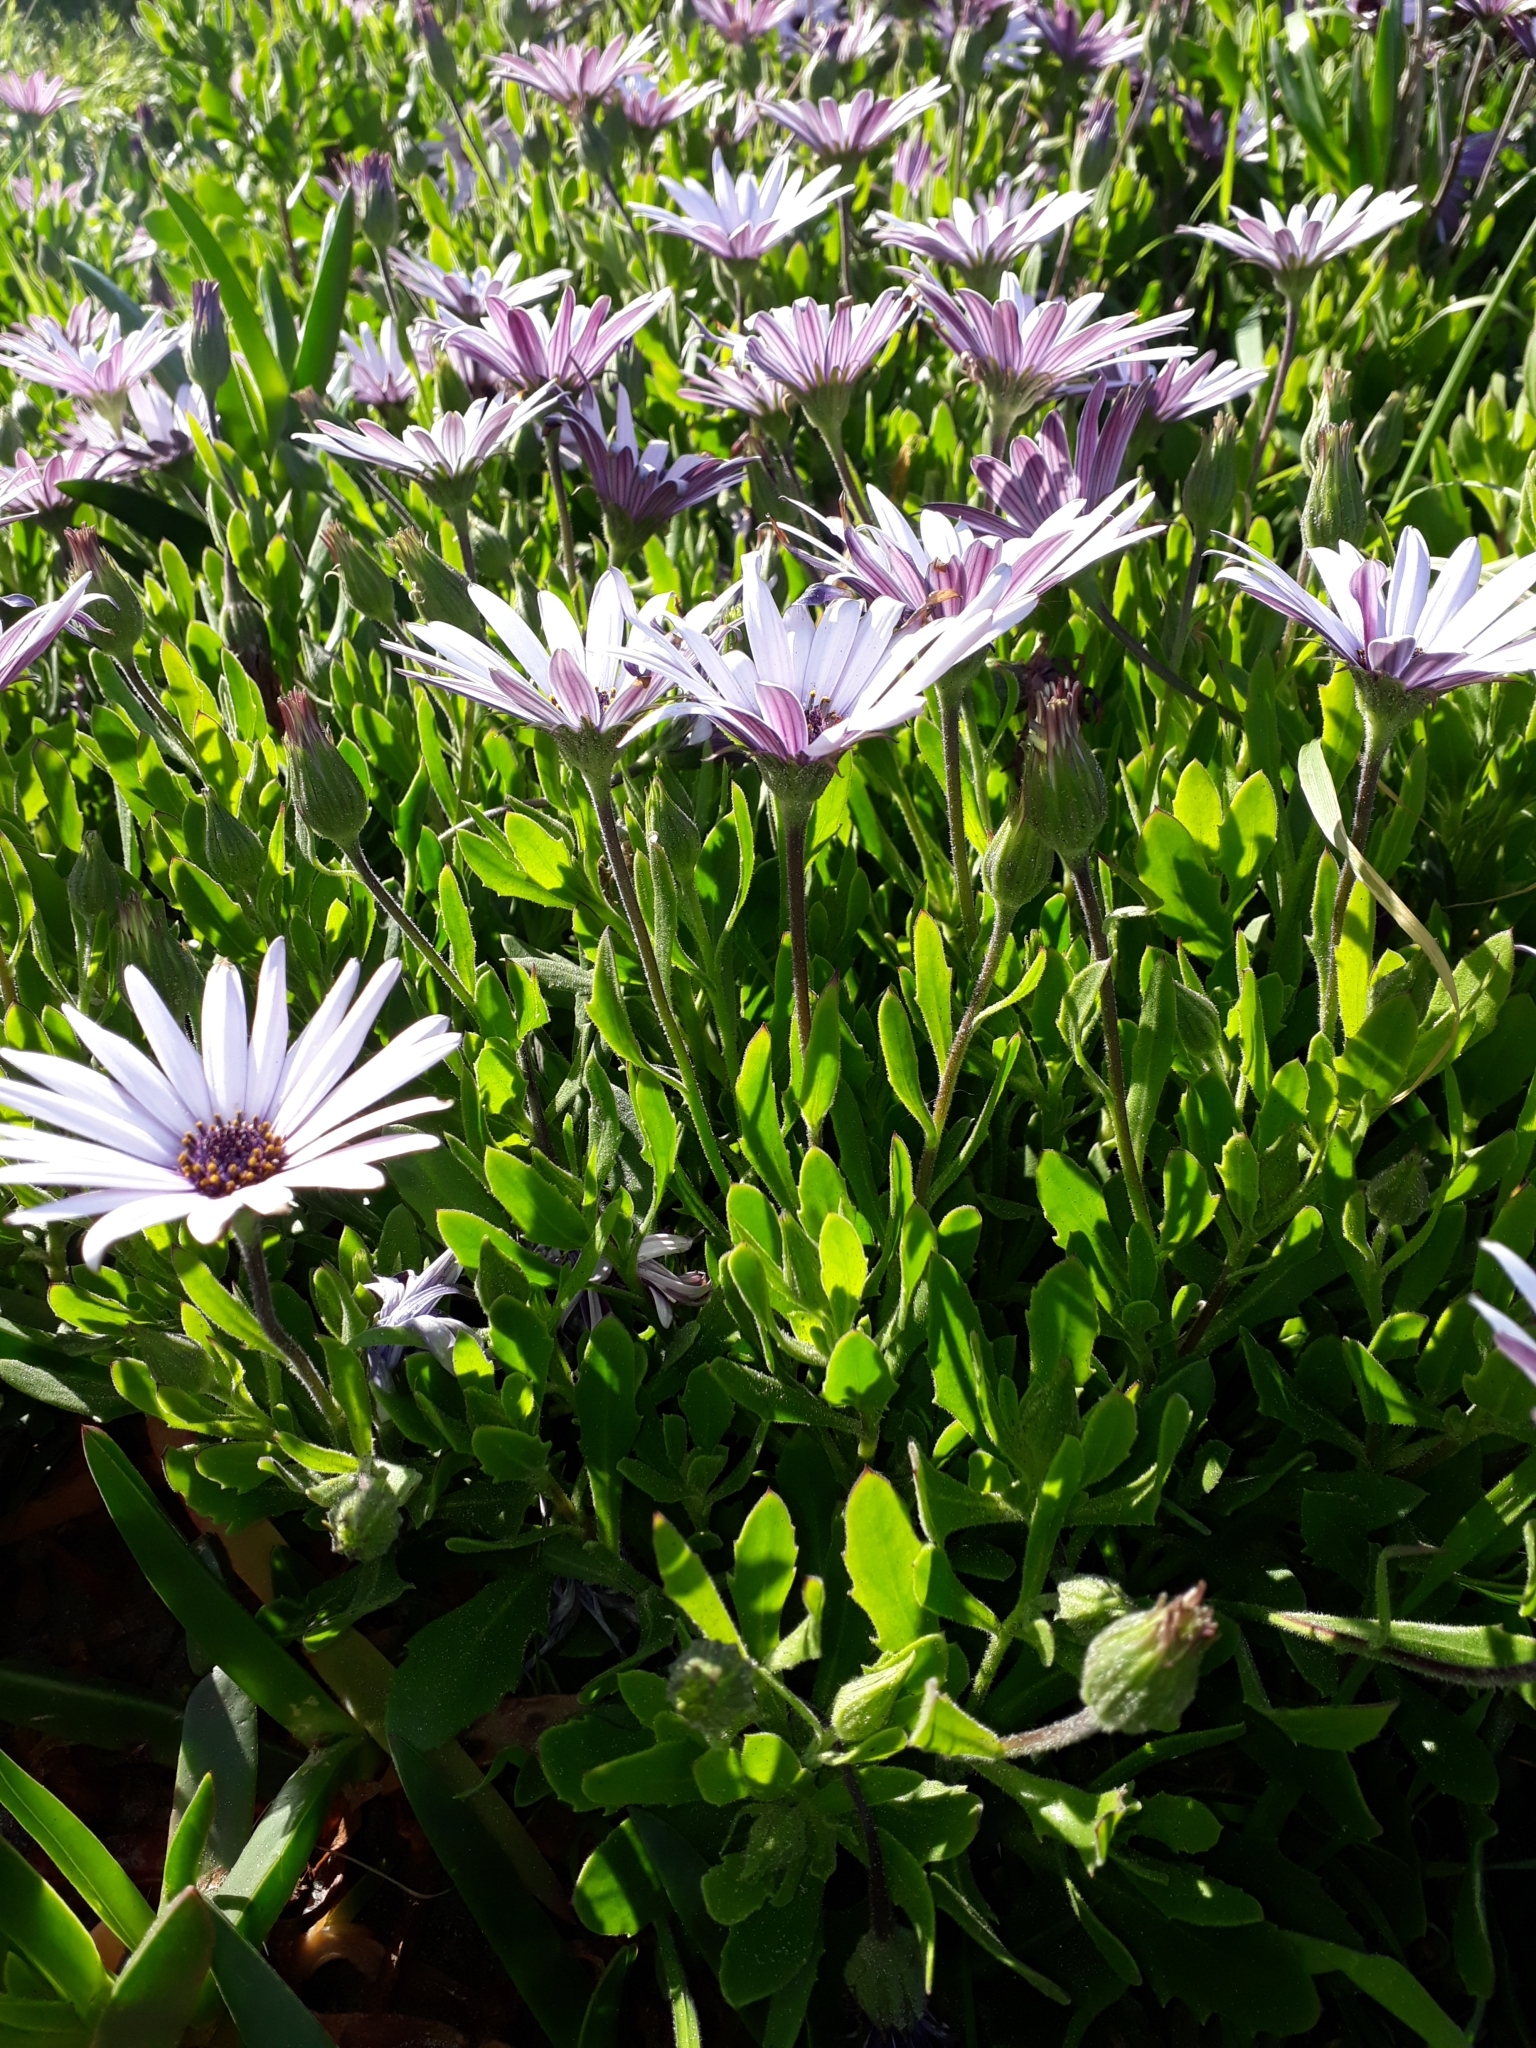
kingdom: Plantae
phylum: Tracheophyta
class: Magnoliopsida
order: Asterales
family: Asteraceae
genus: Dimorphotheca
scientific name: Dimorphotheca fruticosa
